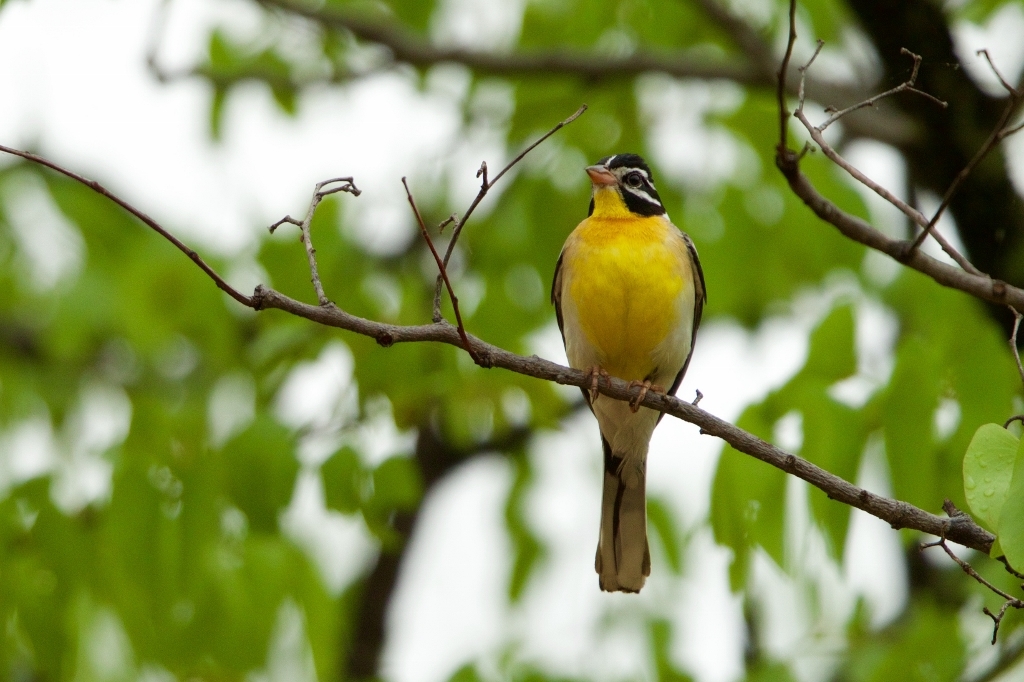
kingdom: Animalia
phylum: Chordata
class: Aves
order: Passeriformes
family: Emberizidae
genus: Emberiza
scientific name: Emberiza flaviventris
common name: Golden-breasted bunting
